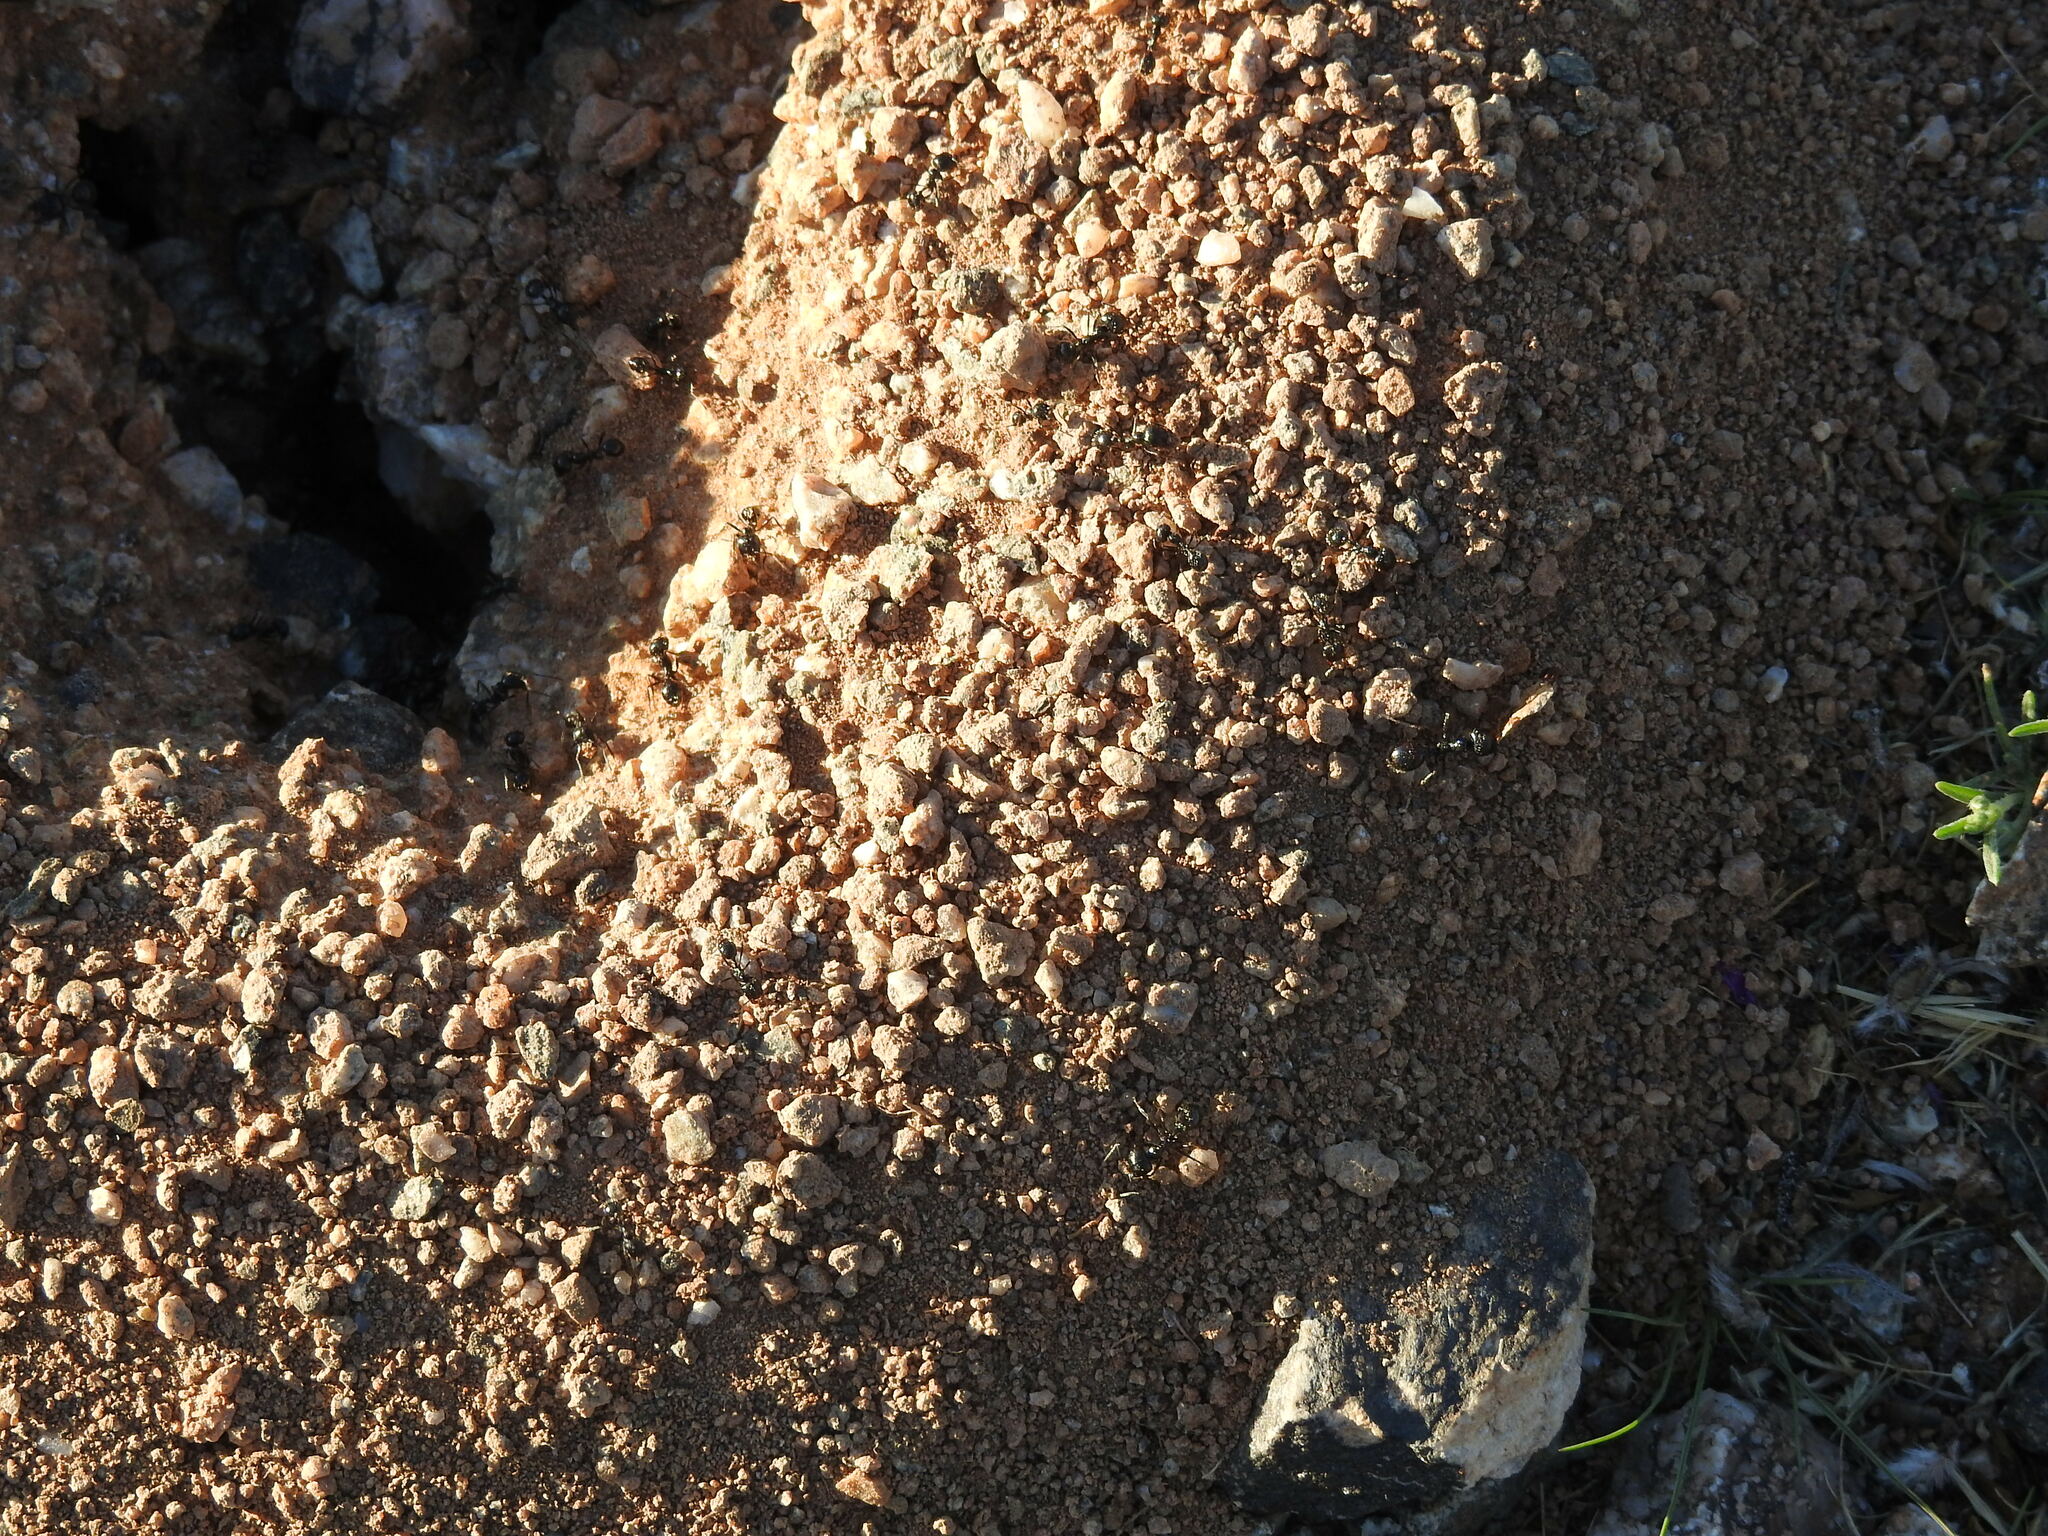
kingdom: Animalia
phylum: Arthropoda
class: Insecta
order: Hymenoptera
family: Formicidae
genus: Messor
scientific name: Messor pergandei
